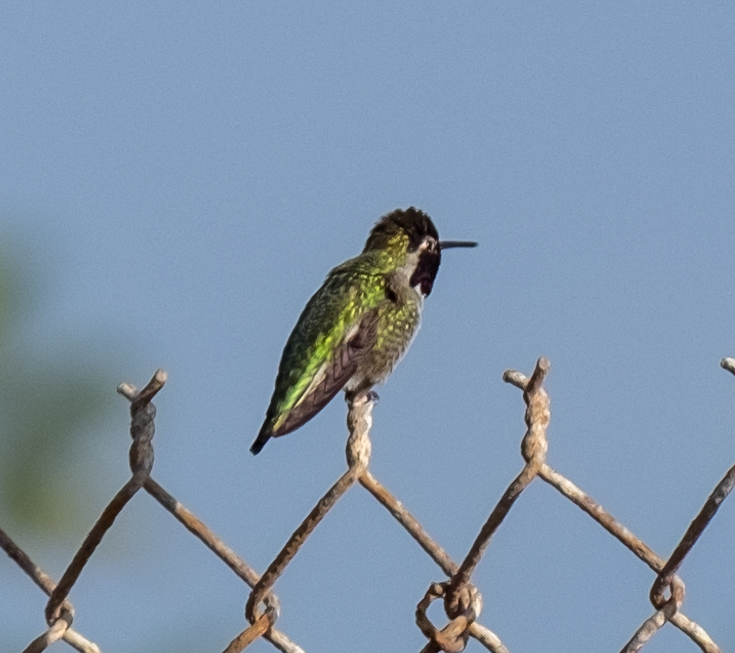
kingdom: Animalia
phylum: Chordata
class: Aves
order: Apodiformes
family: Trochilidae
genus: Calypte
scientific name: Calypte anna
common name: Anna's hummingbird
